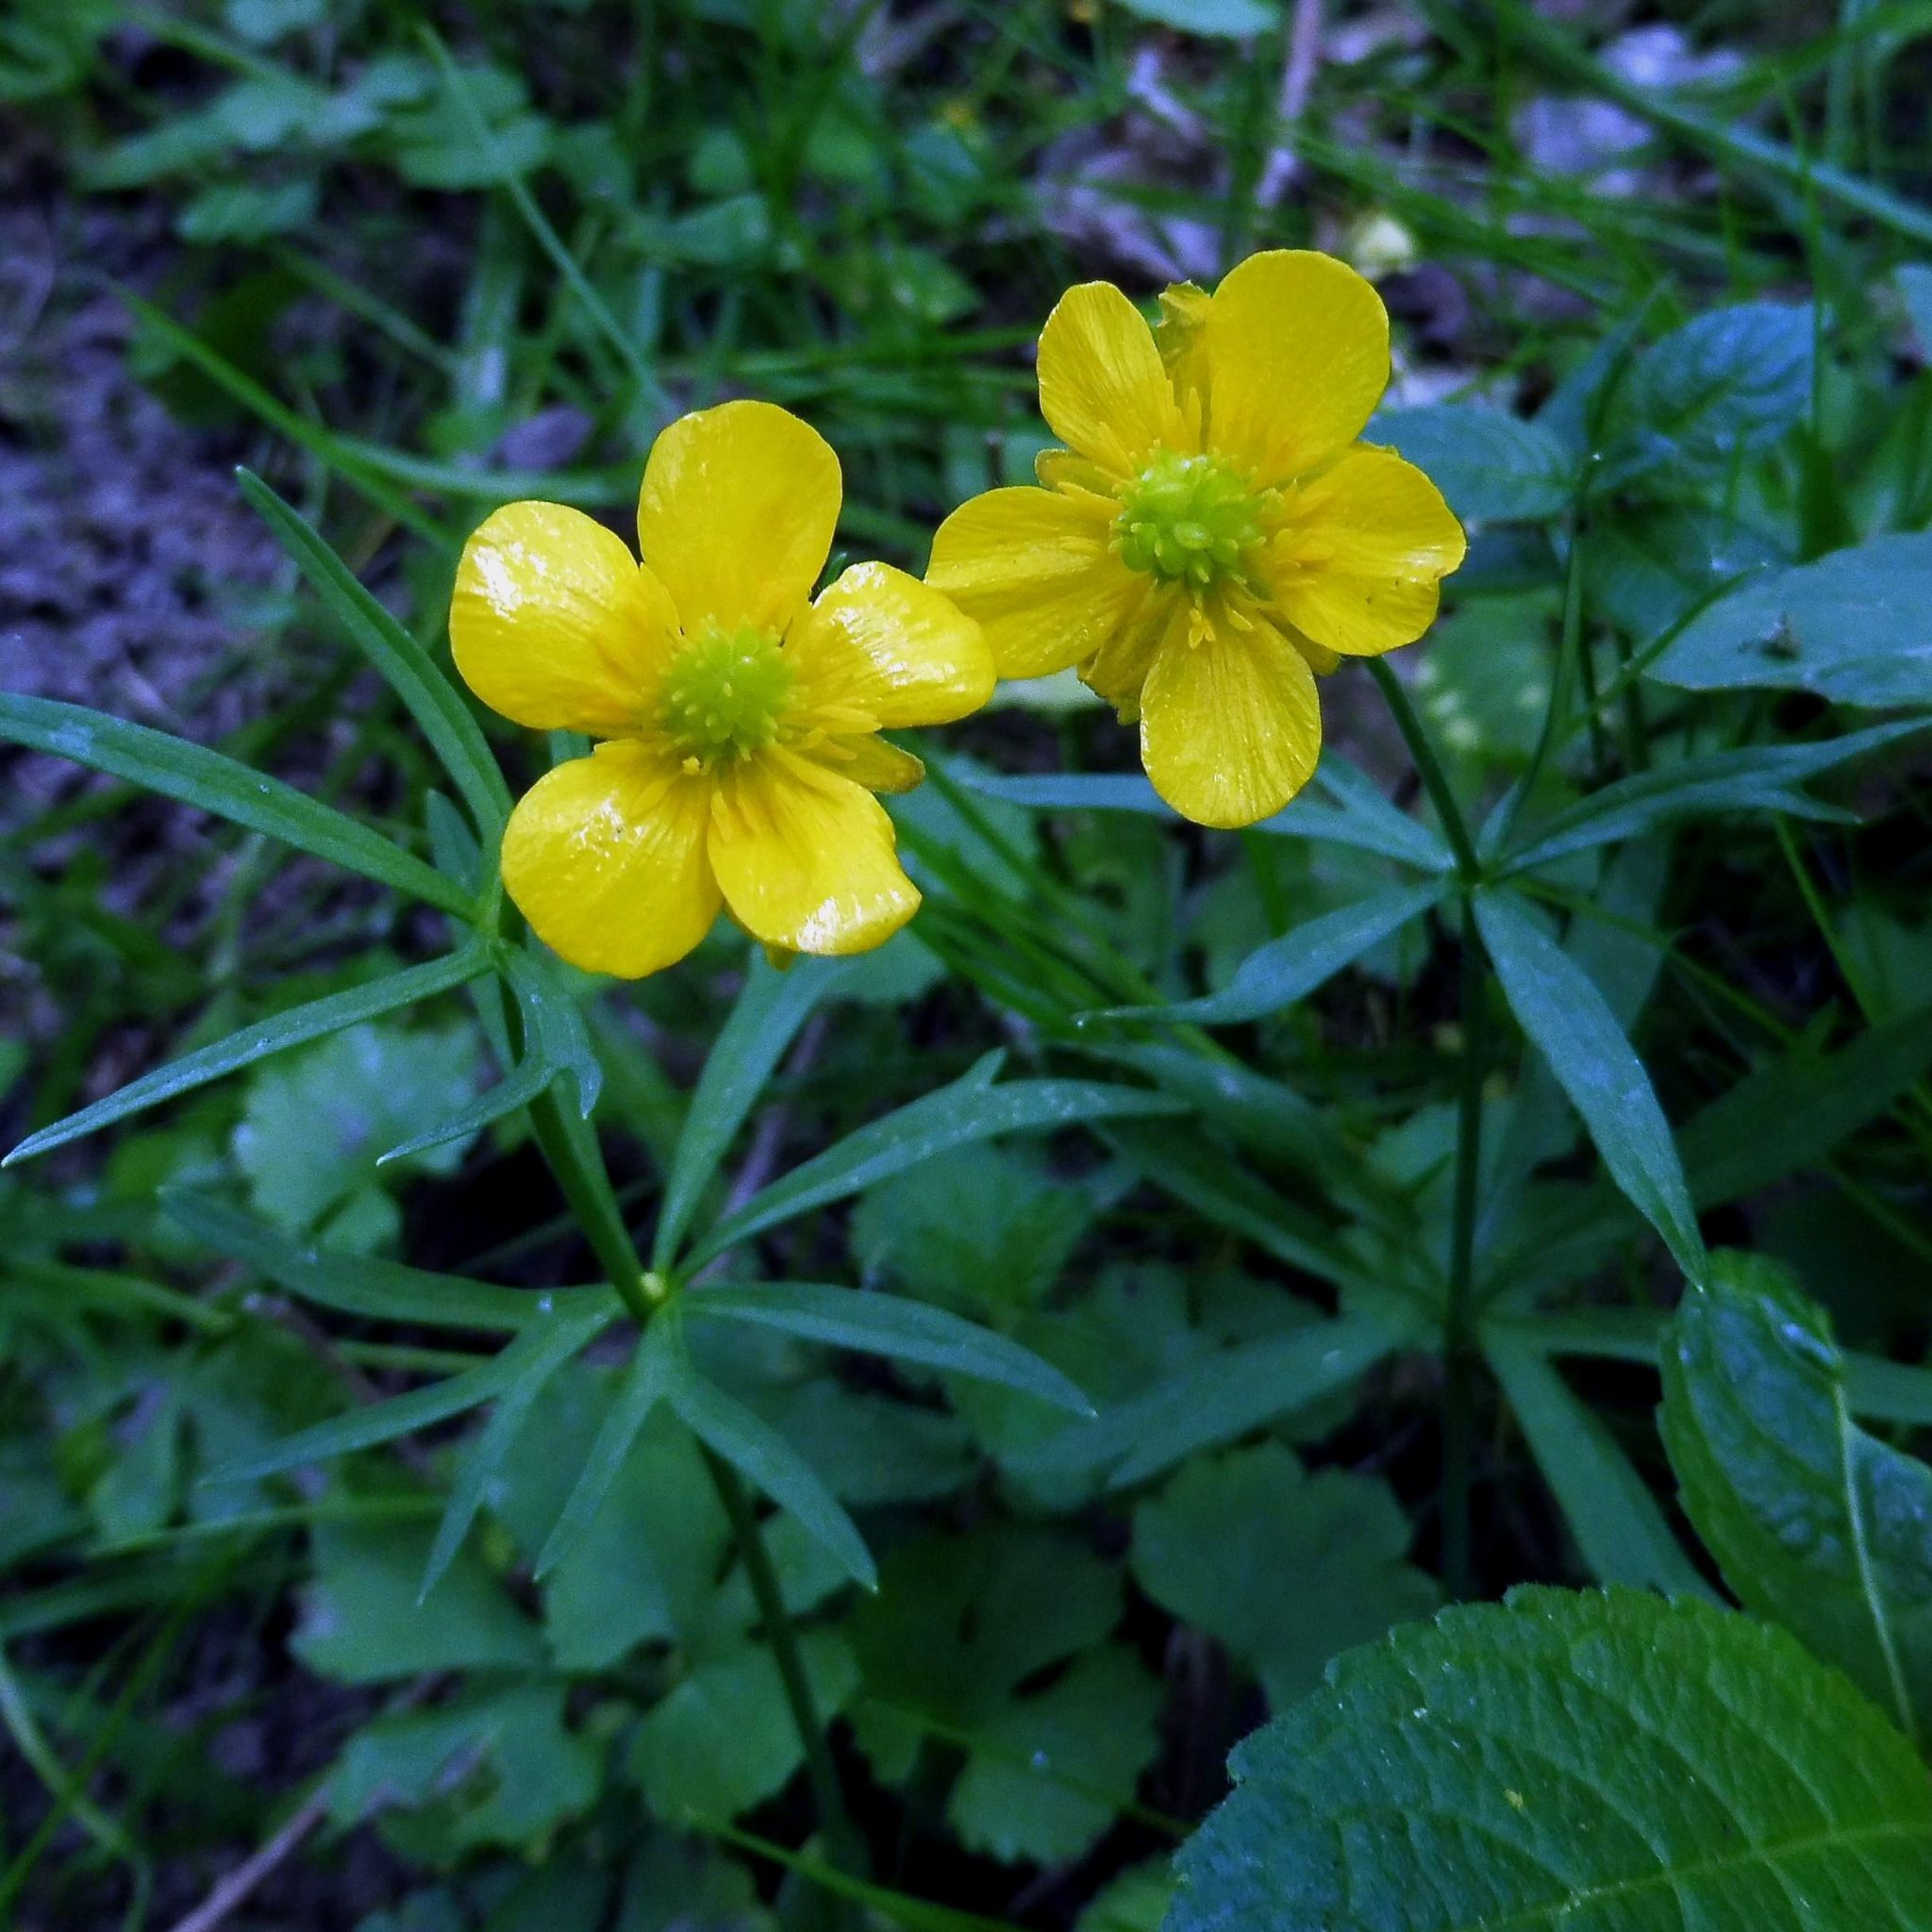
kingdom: Plantae
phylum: Tracheophyta
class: Magnoliopsida
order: Ranunculales
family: Ranunculaceae
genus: Ranunculus
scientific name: Ranunculus auricomus
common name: Goldilocks buttercup
